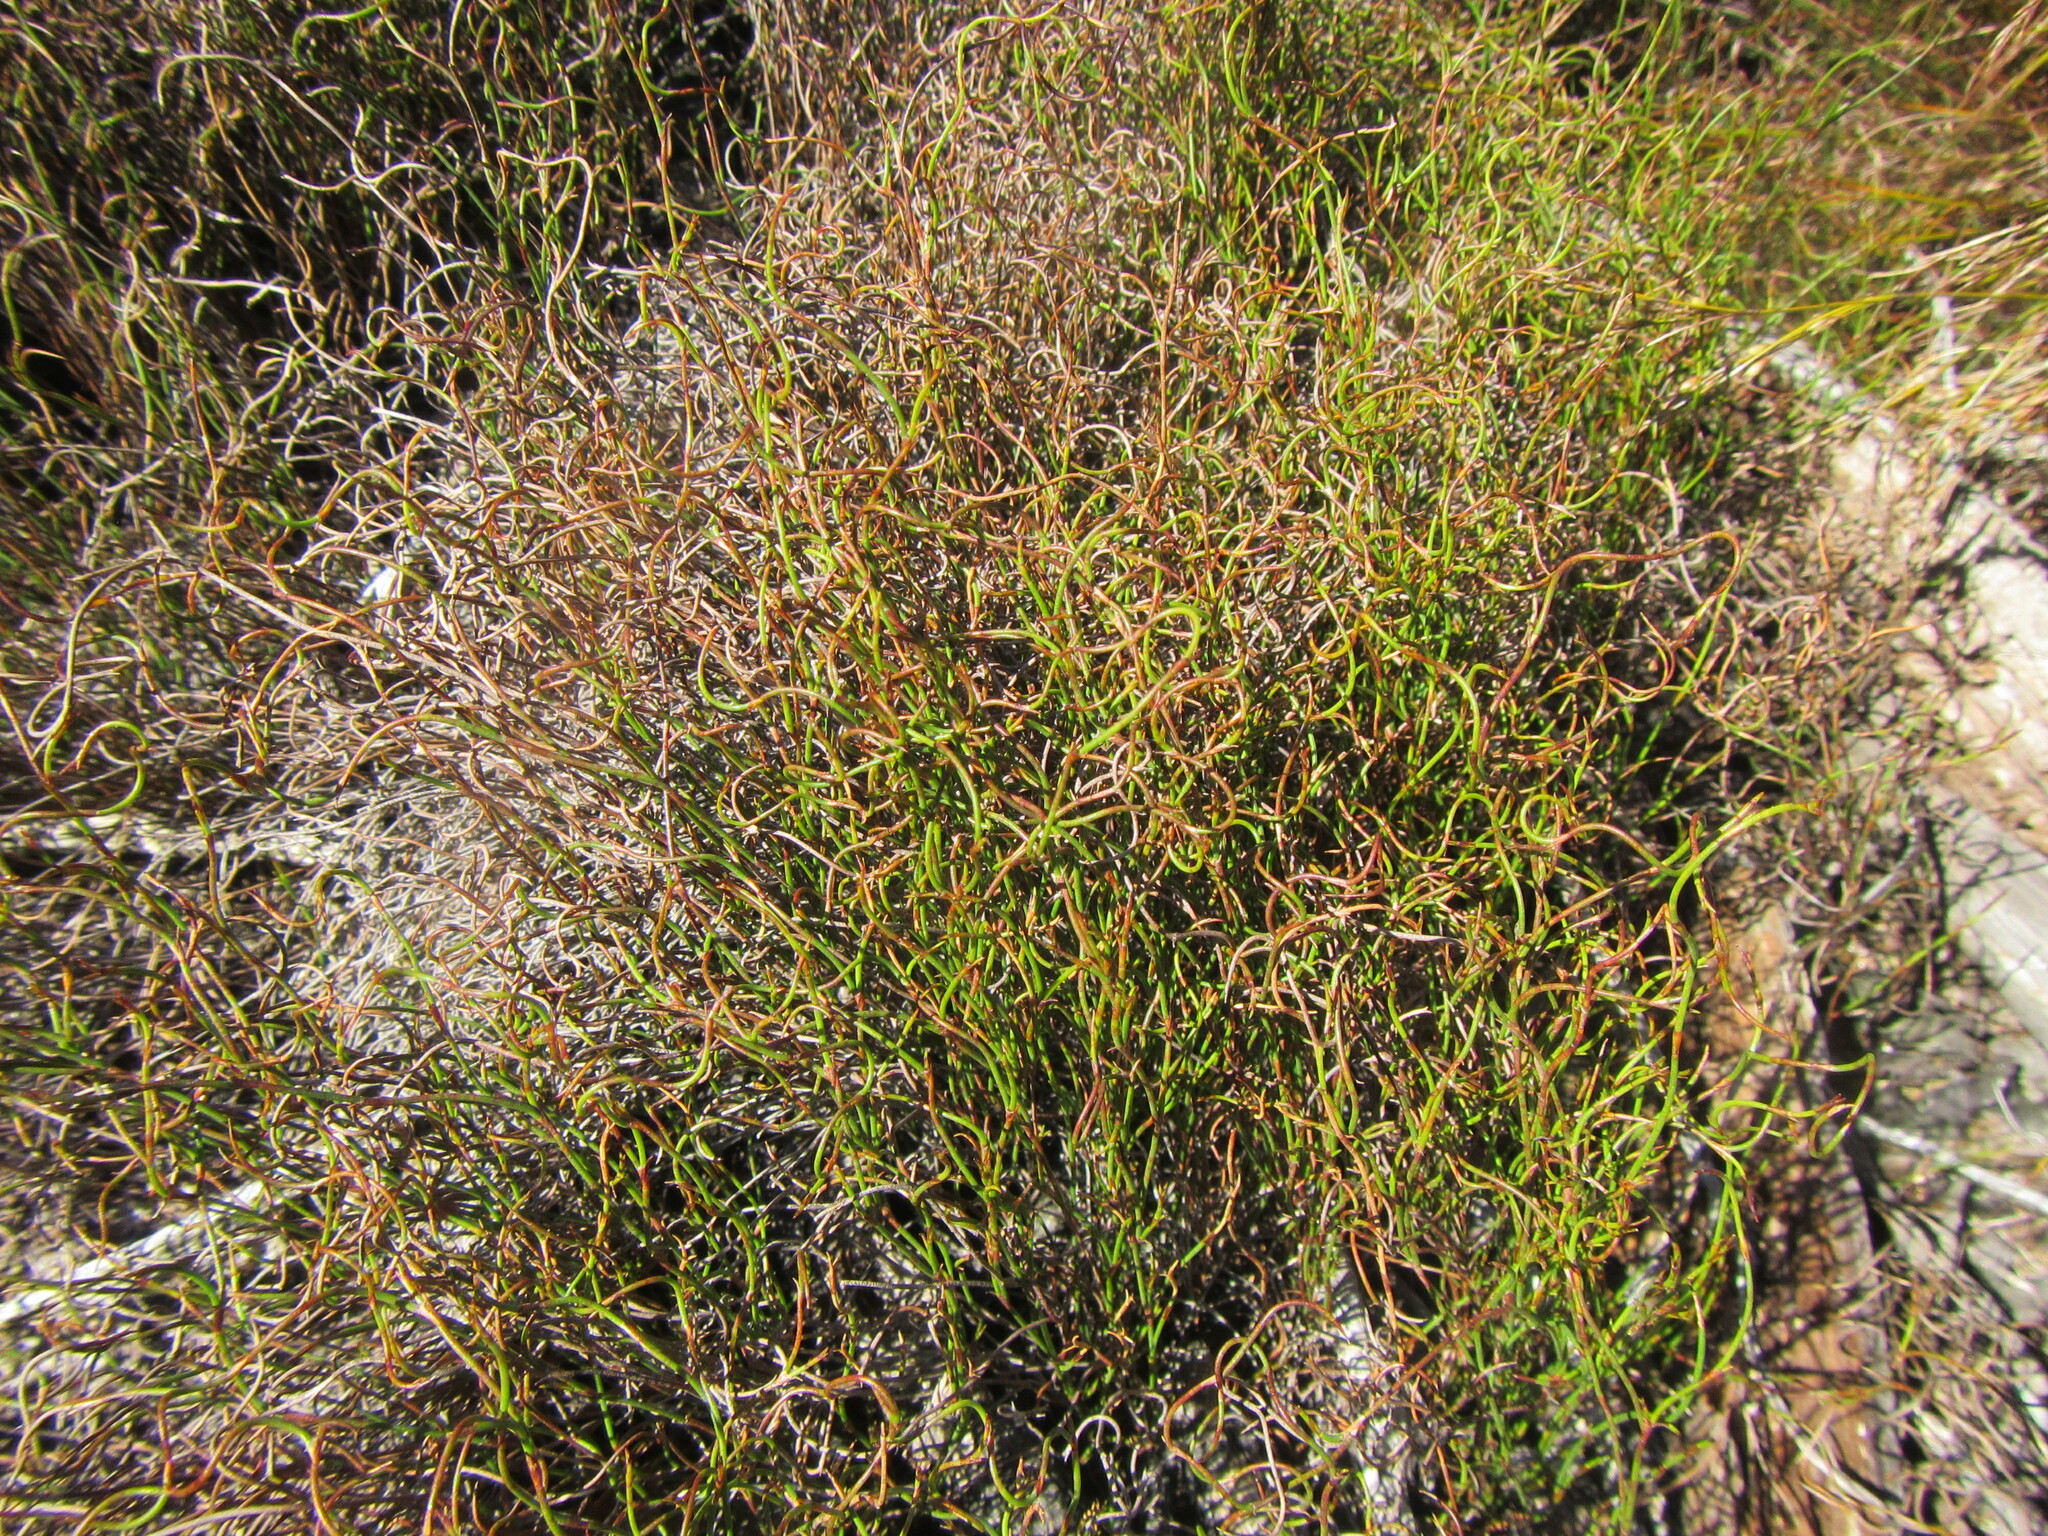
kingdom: Plantae
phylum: Tracheophyta
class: Liliopsida
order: Poales
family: Restionaceae
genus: Restio
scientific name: Restio tenuissimus
